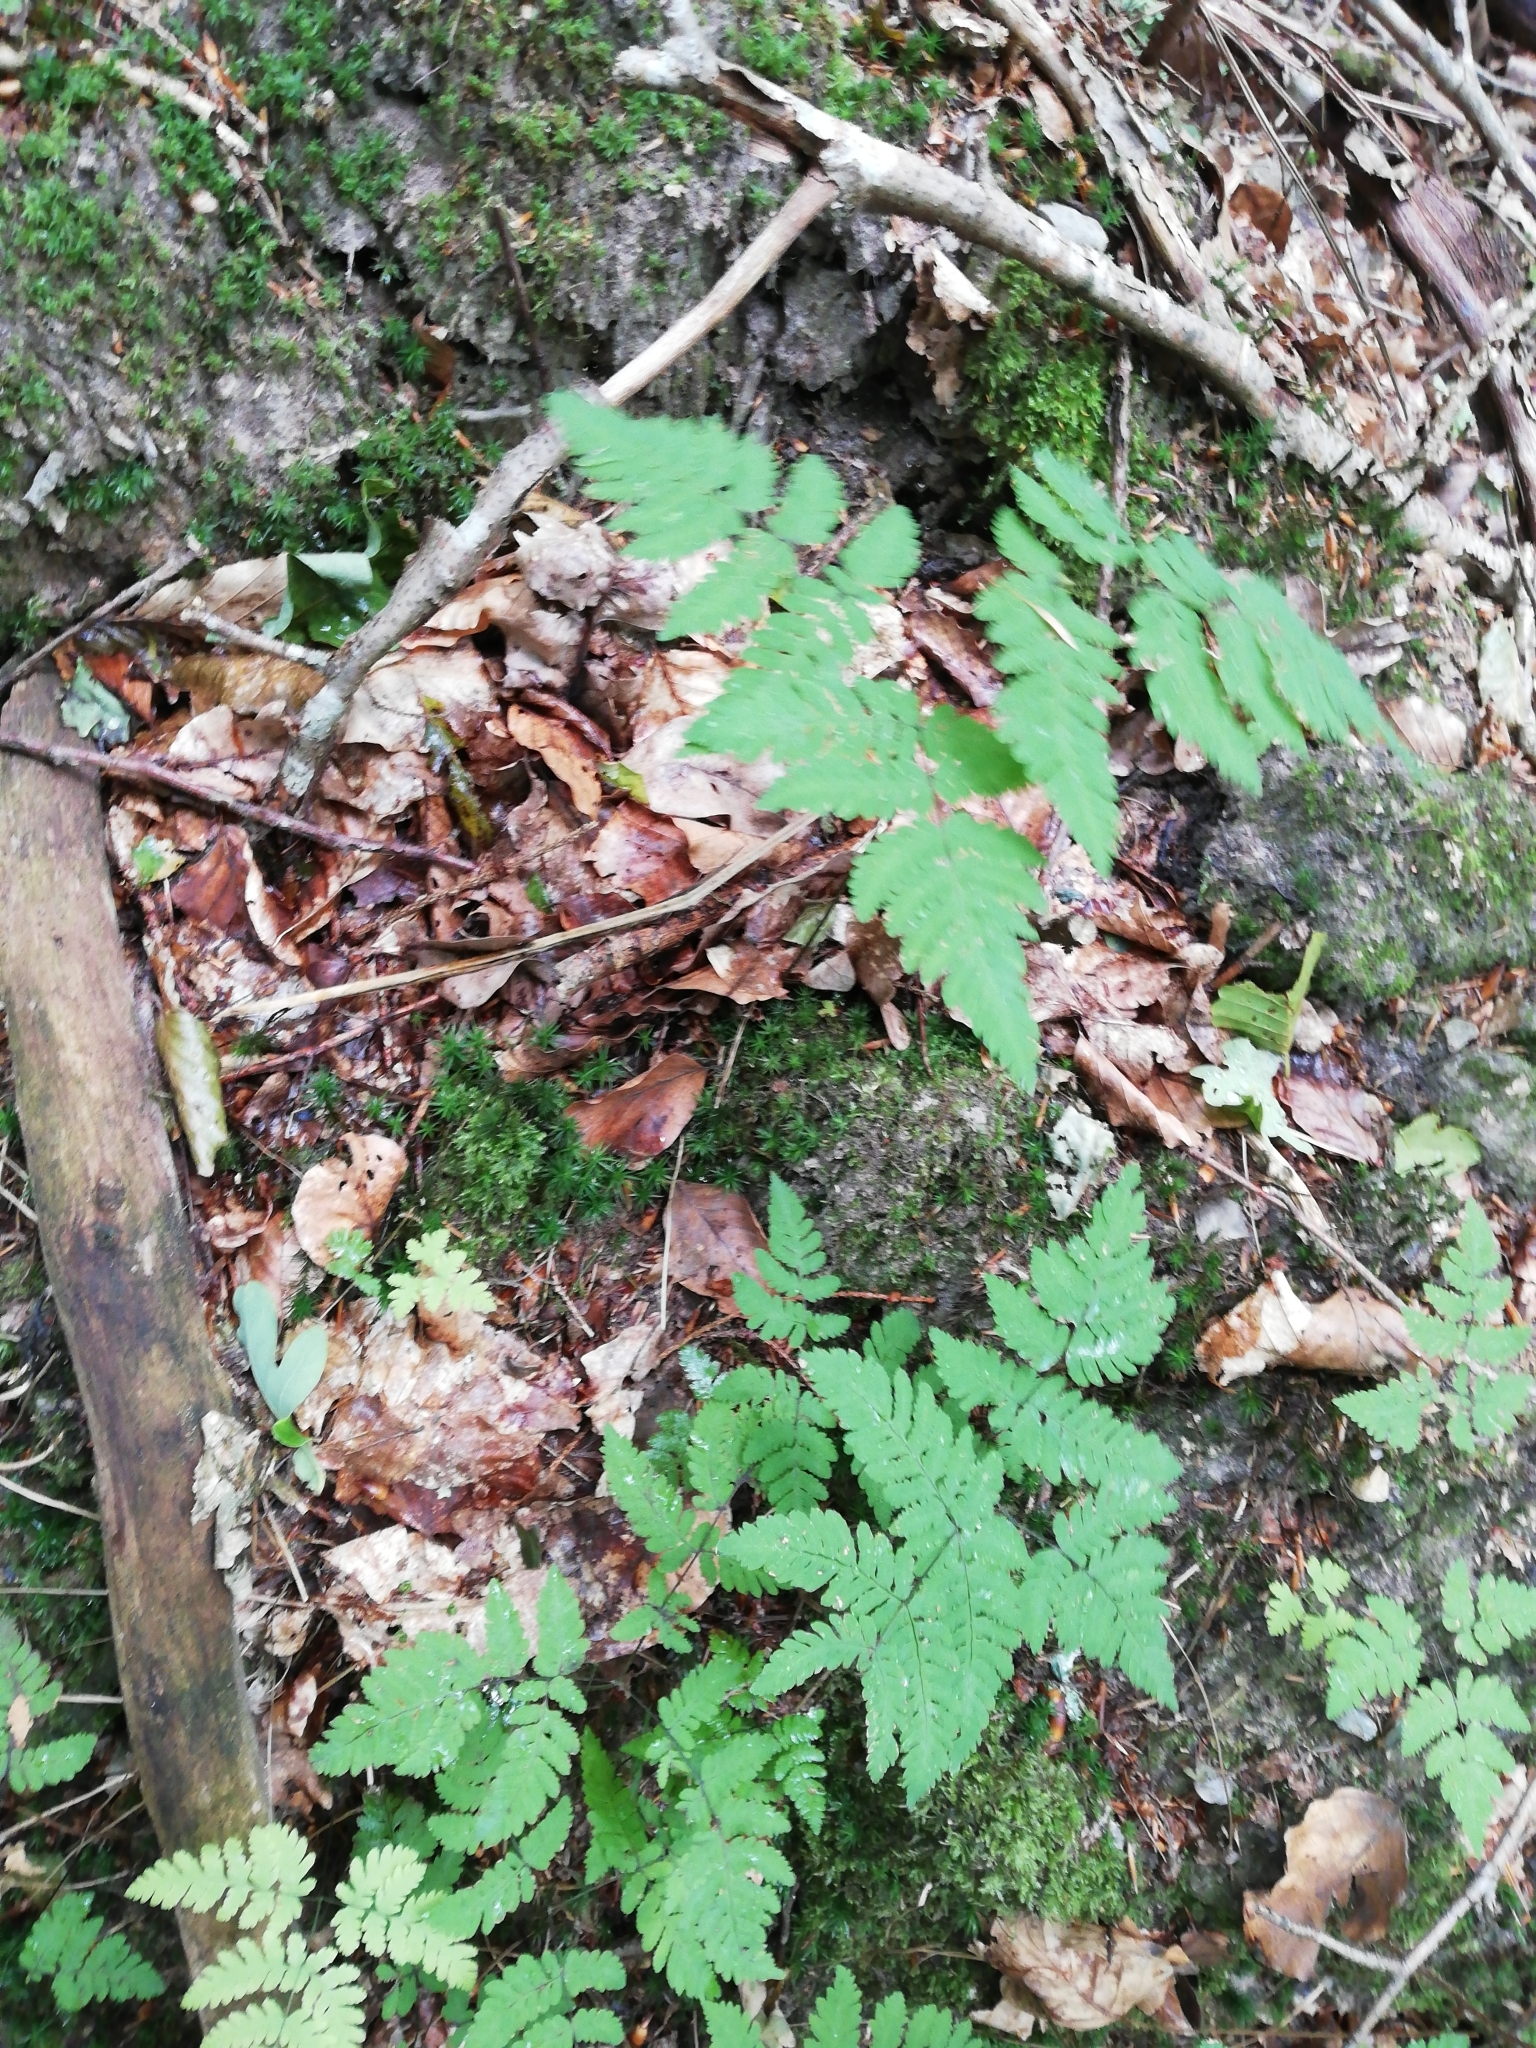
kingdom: Plantae
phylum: Tracheophyta
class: Polypodiopsida
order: Polypodiales
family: Cystopteridaceae
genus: Gymnocarpium
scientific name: Gymnocarpium dryopteris
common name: Oak fern
